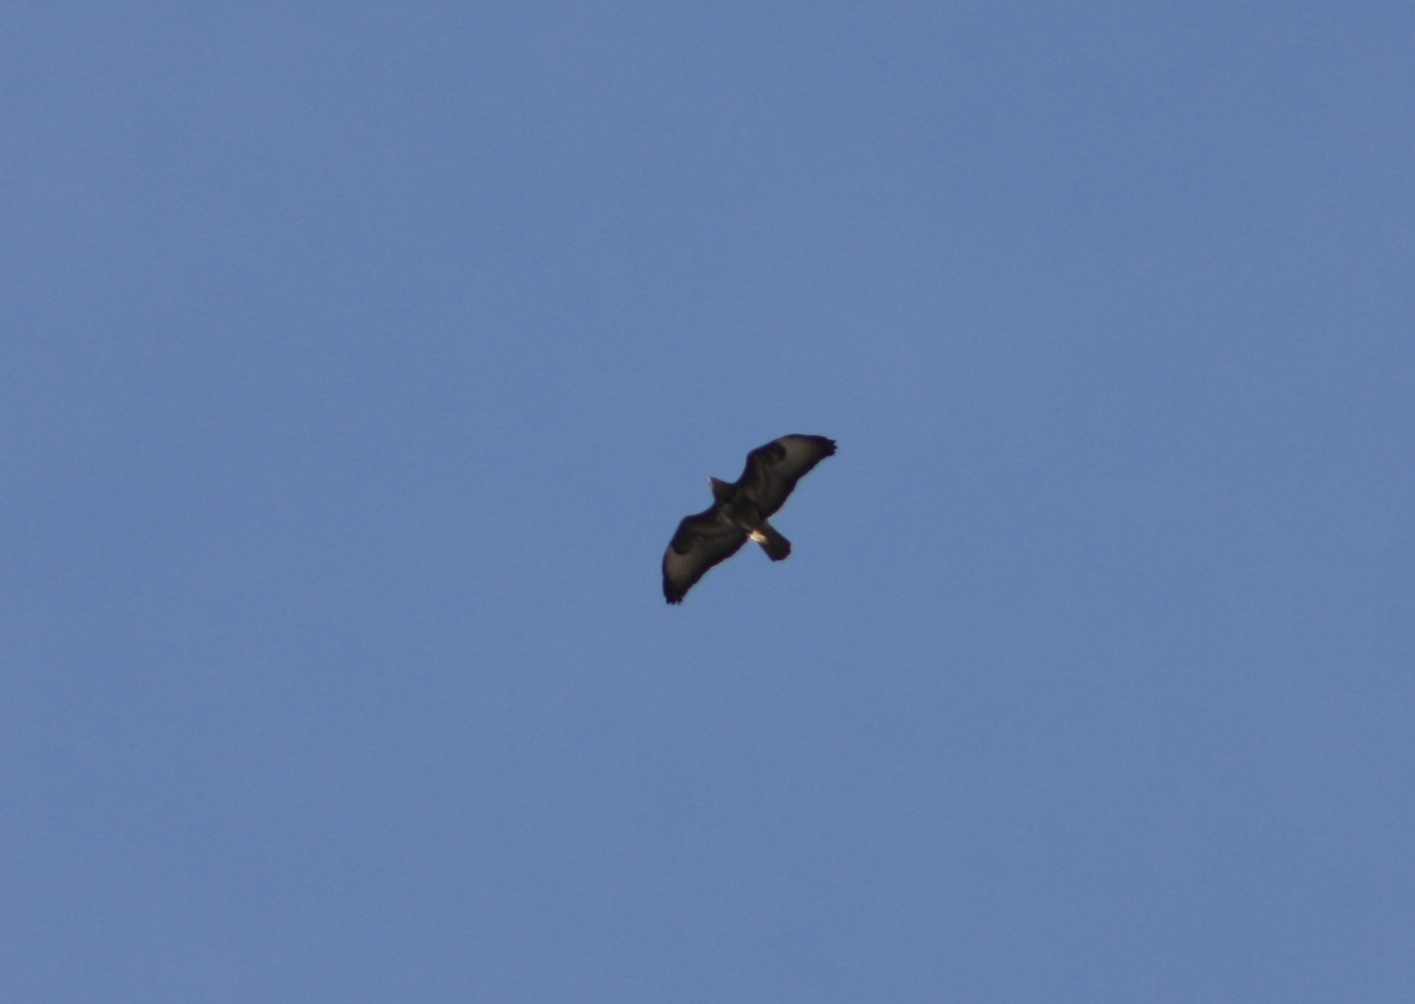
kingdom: Animalia
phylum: Chordata
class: Aves
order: Accipitriformes
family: Accipitridae
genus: Buteo
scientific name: Buteo buteo
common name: Common buzzard
